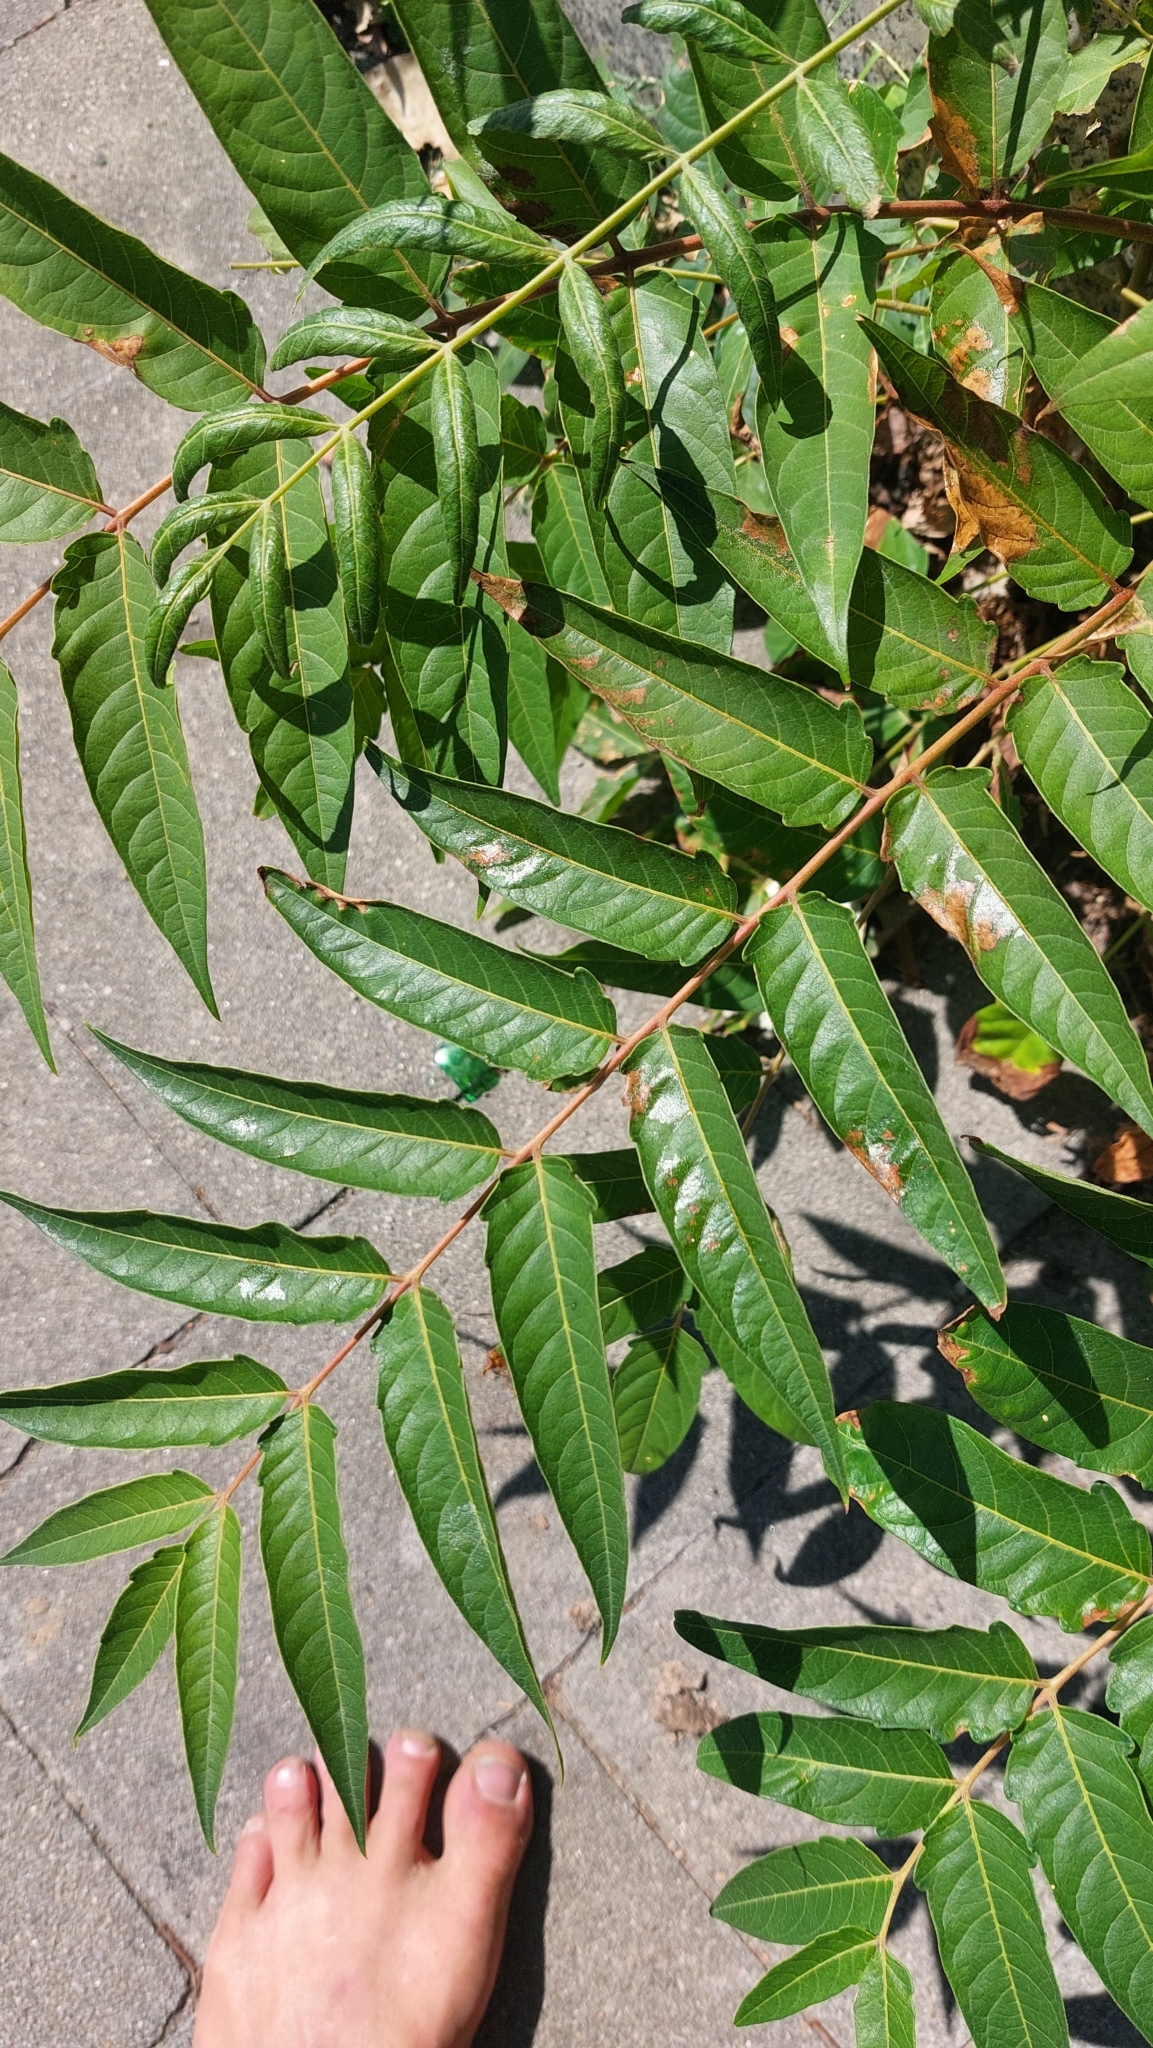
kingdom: Plantae
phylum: Tracheophyta
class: Magnoliopsida
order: Sapindales
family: Simaroubaceae
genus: Ailanthus
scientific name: Ailanthus altissima
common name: Tree-of-heaven
